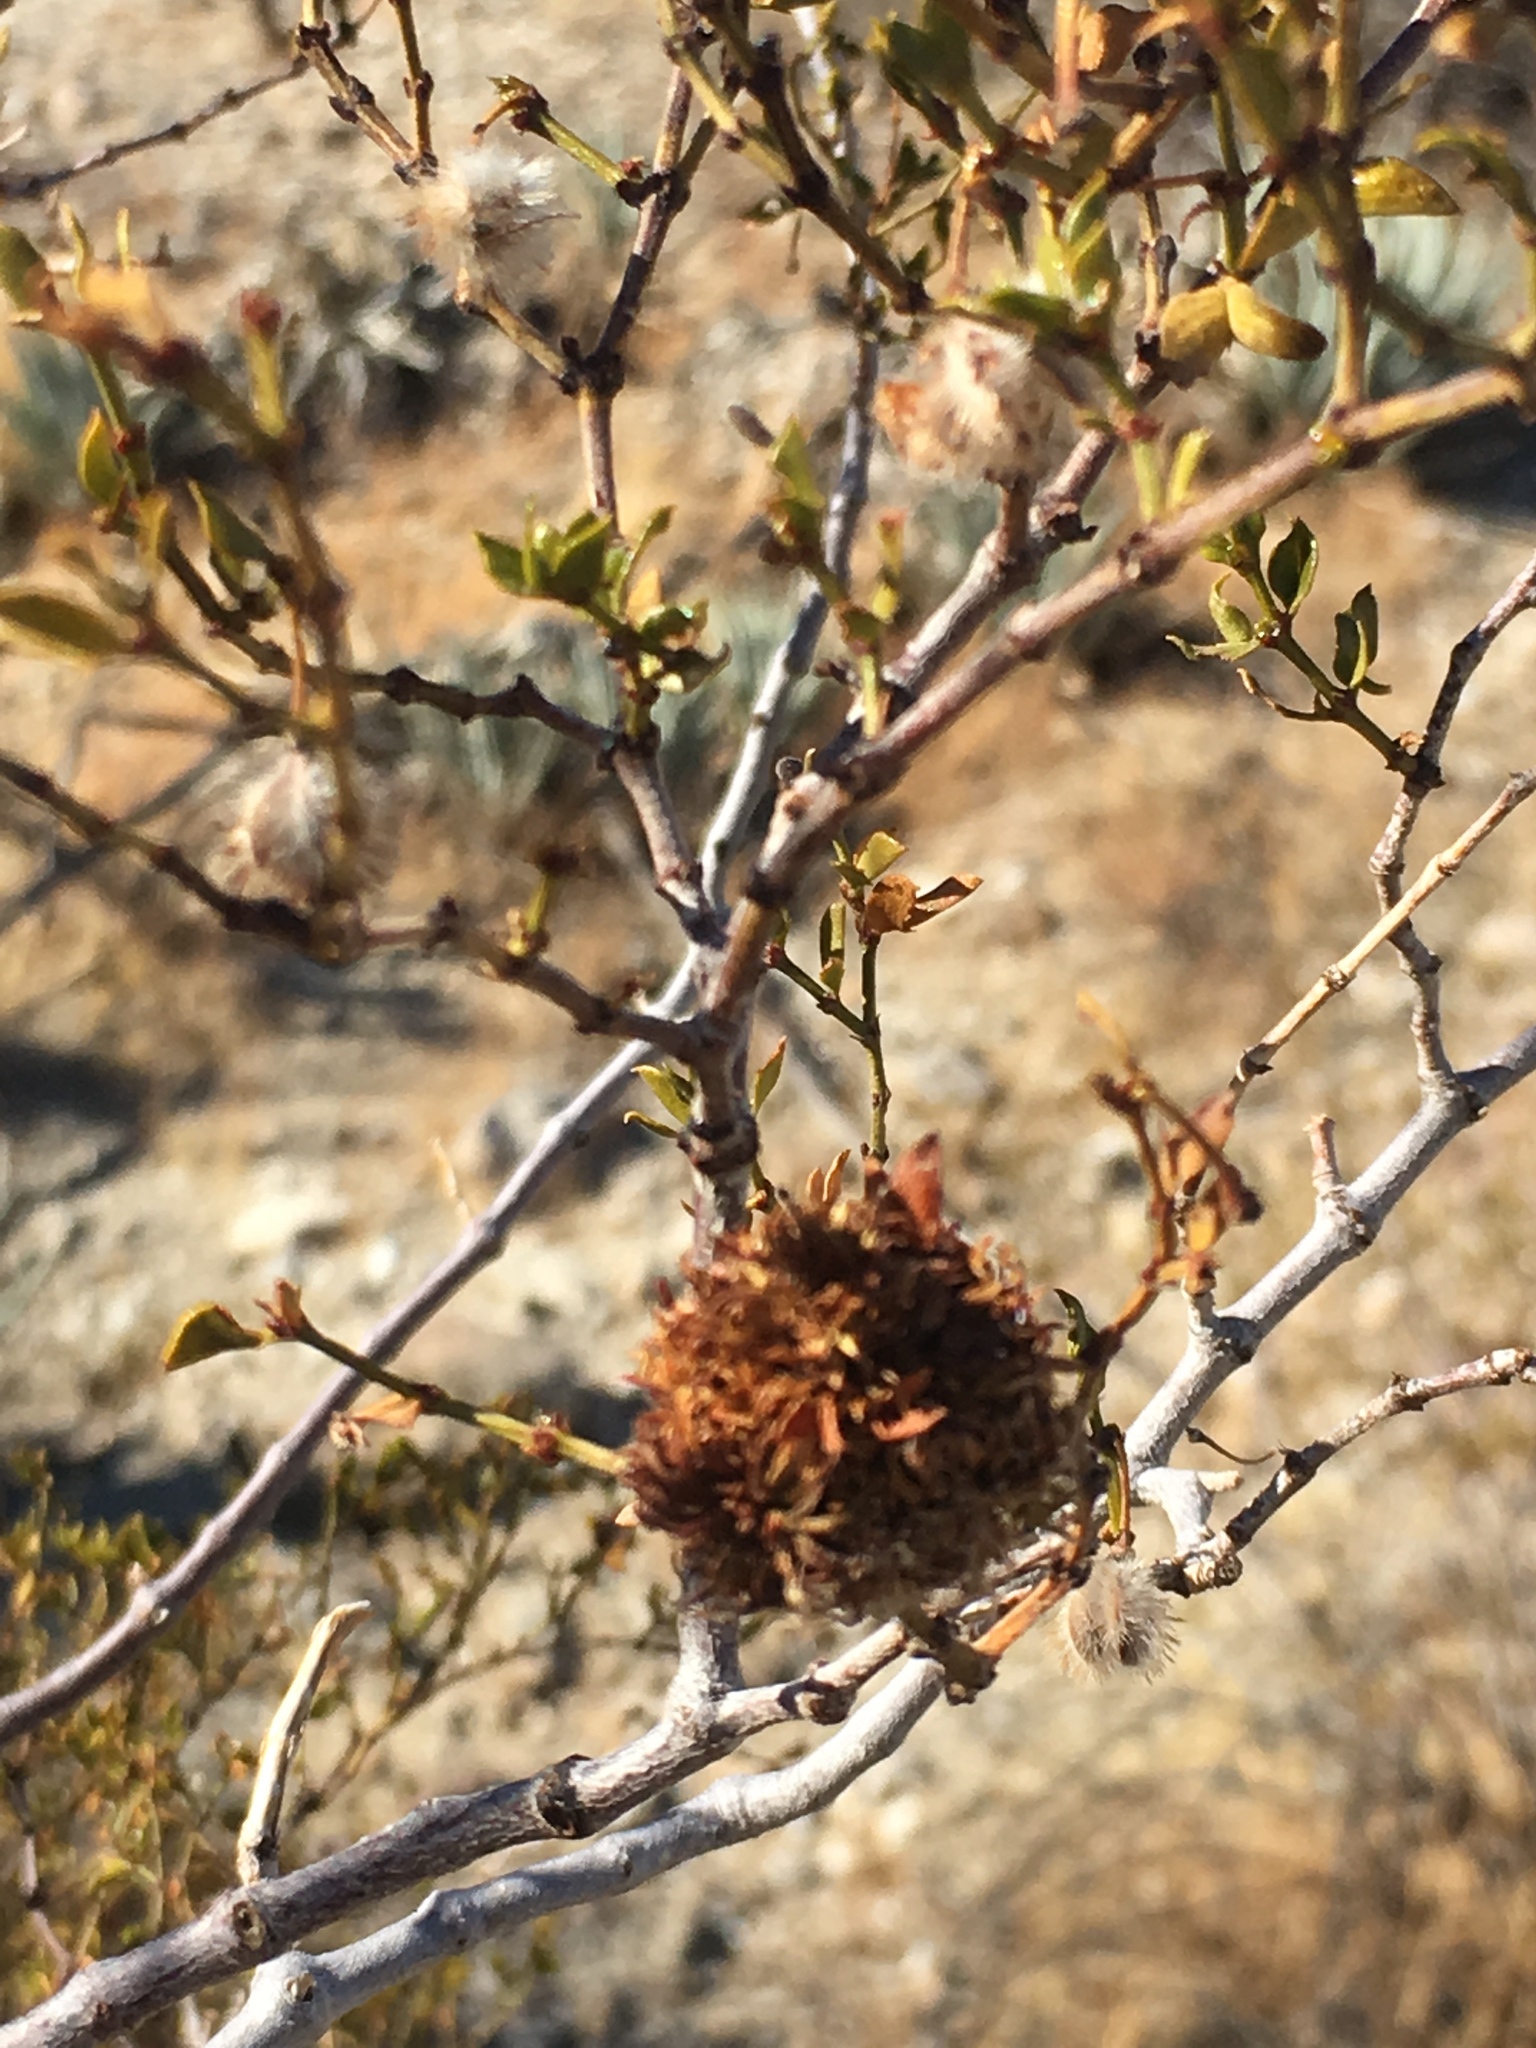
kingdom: Animalia
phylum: Arthropoda
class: Insecta
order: Diptera
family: Cecidomyiidae
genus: Asphondylia
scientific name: Asphondylia auripila
